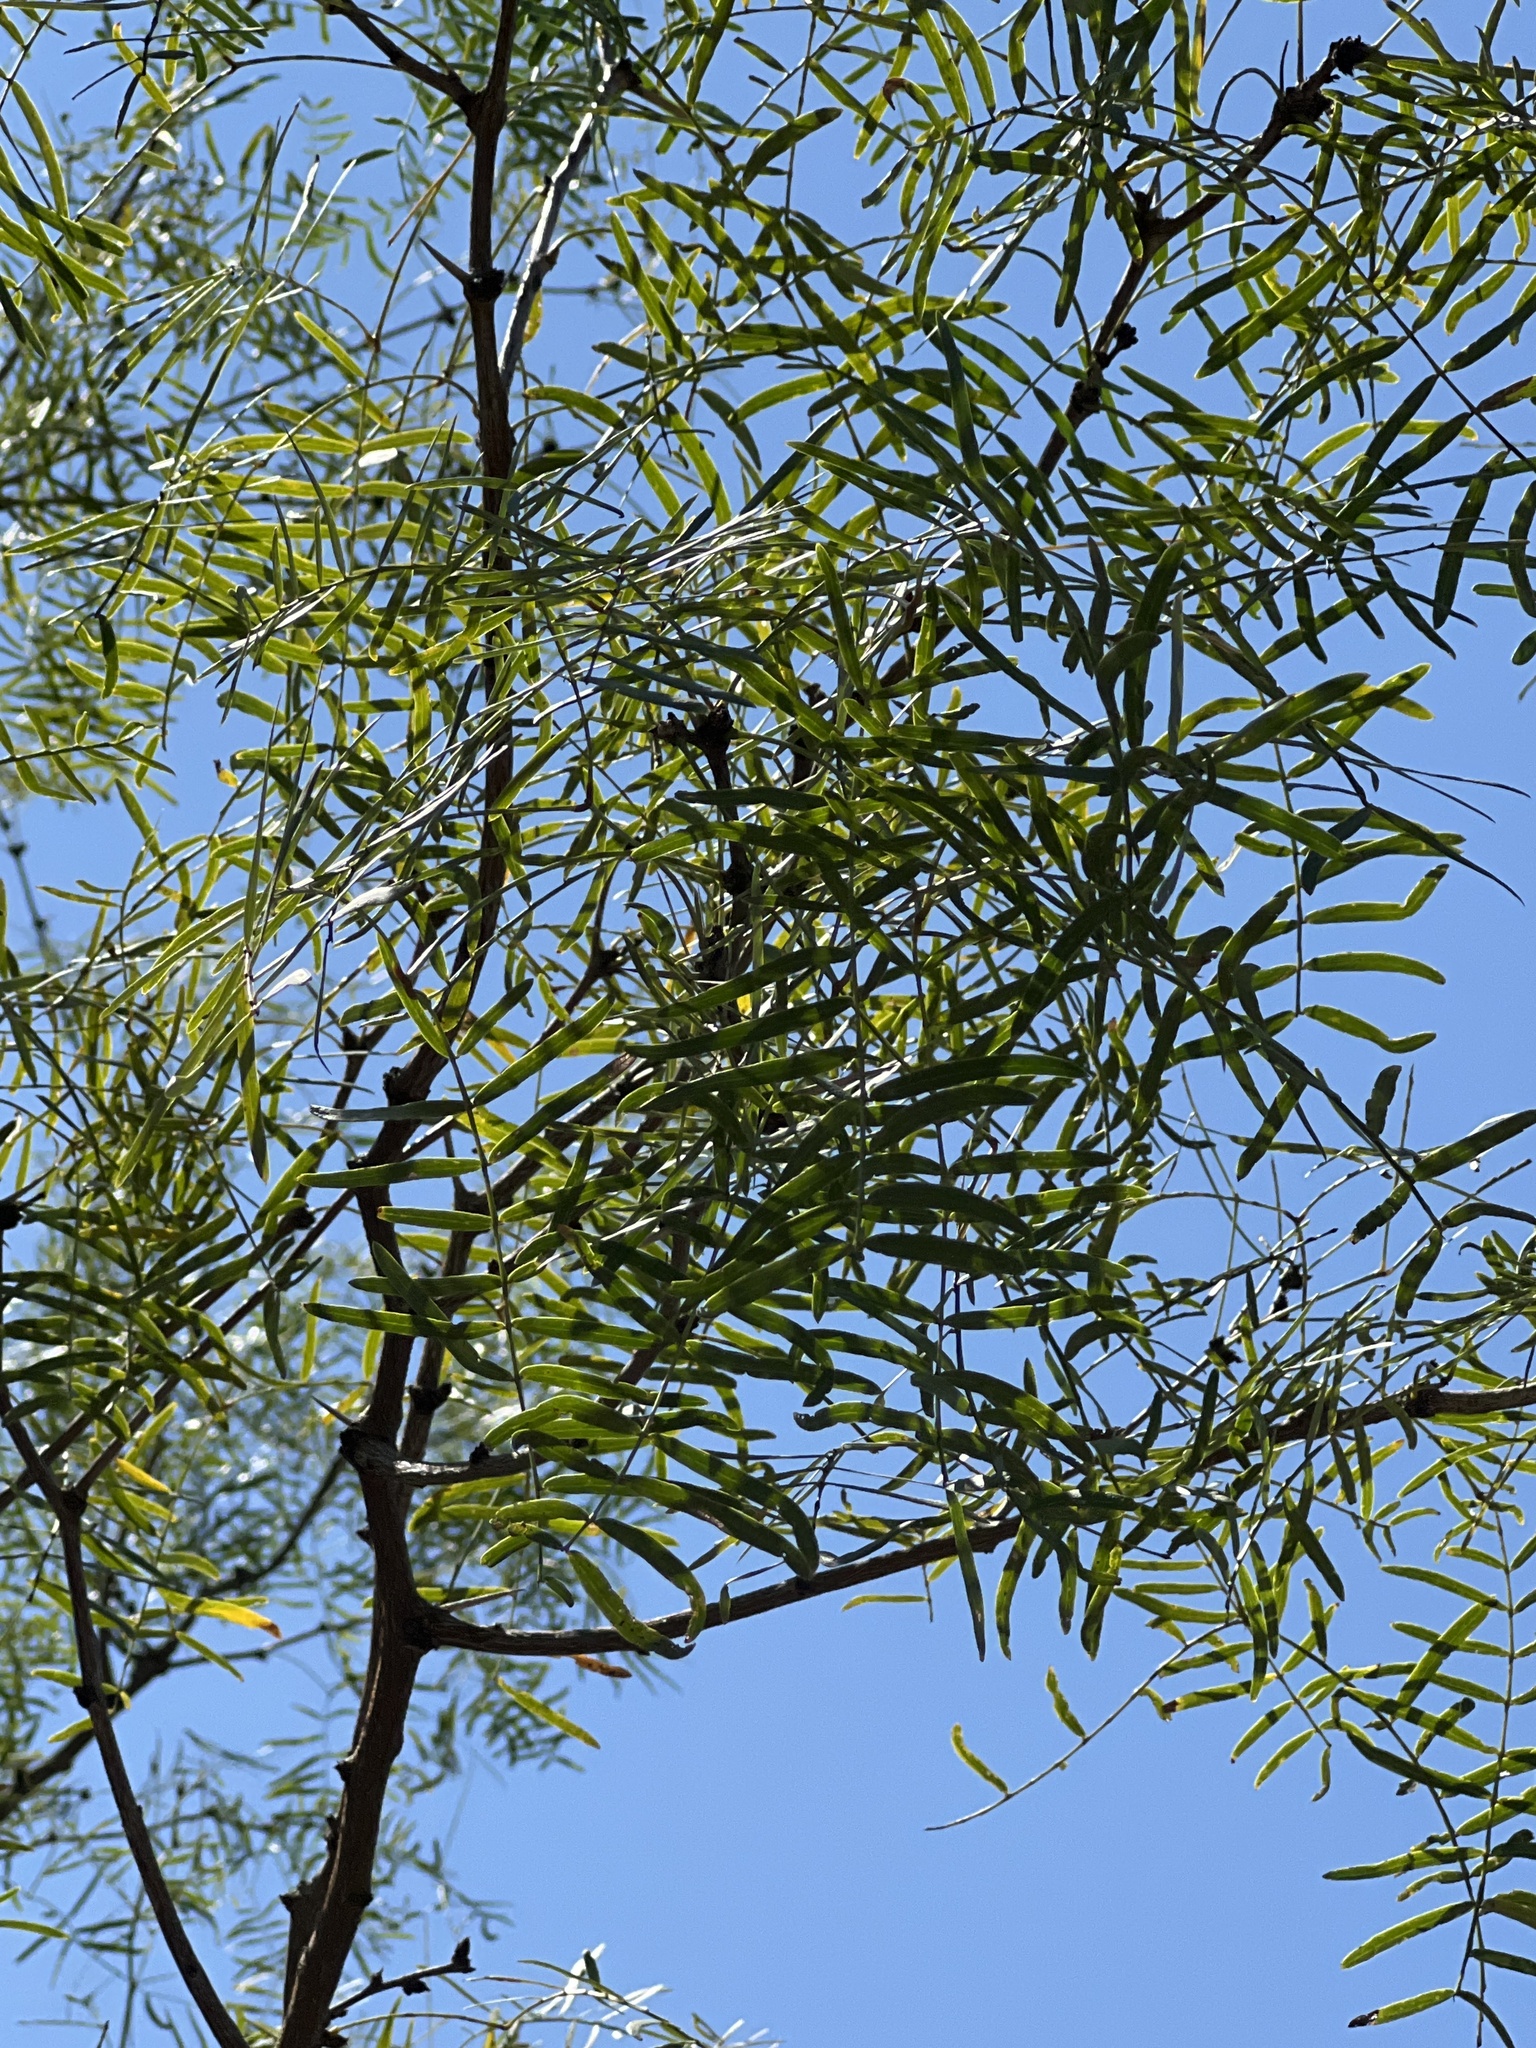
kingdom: Plantae
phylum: Tracheophyta
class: Magnoliopsida
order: Fabales
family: Fabaceae
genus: Prosopis
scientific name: Prosopis glandulosa
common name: Honey mesquite
